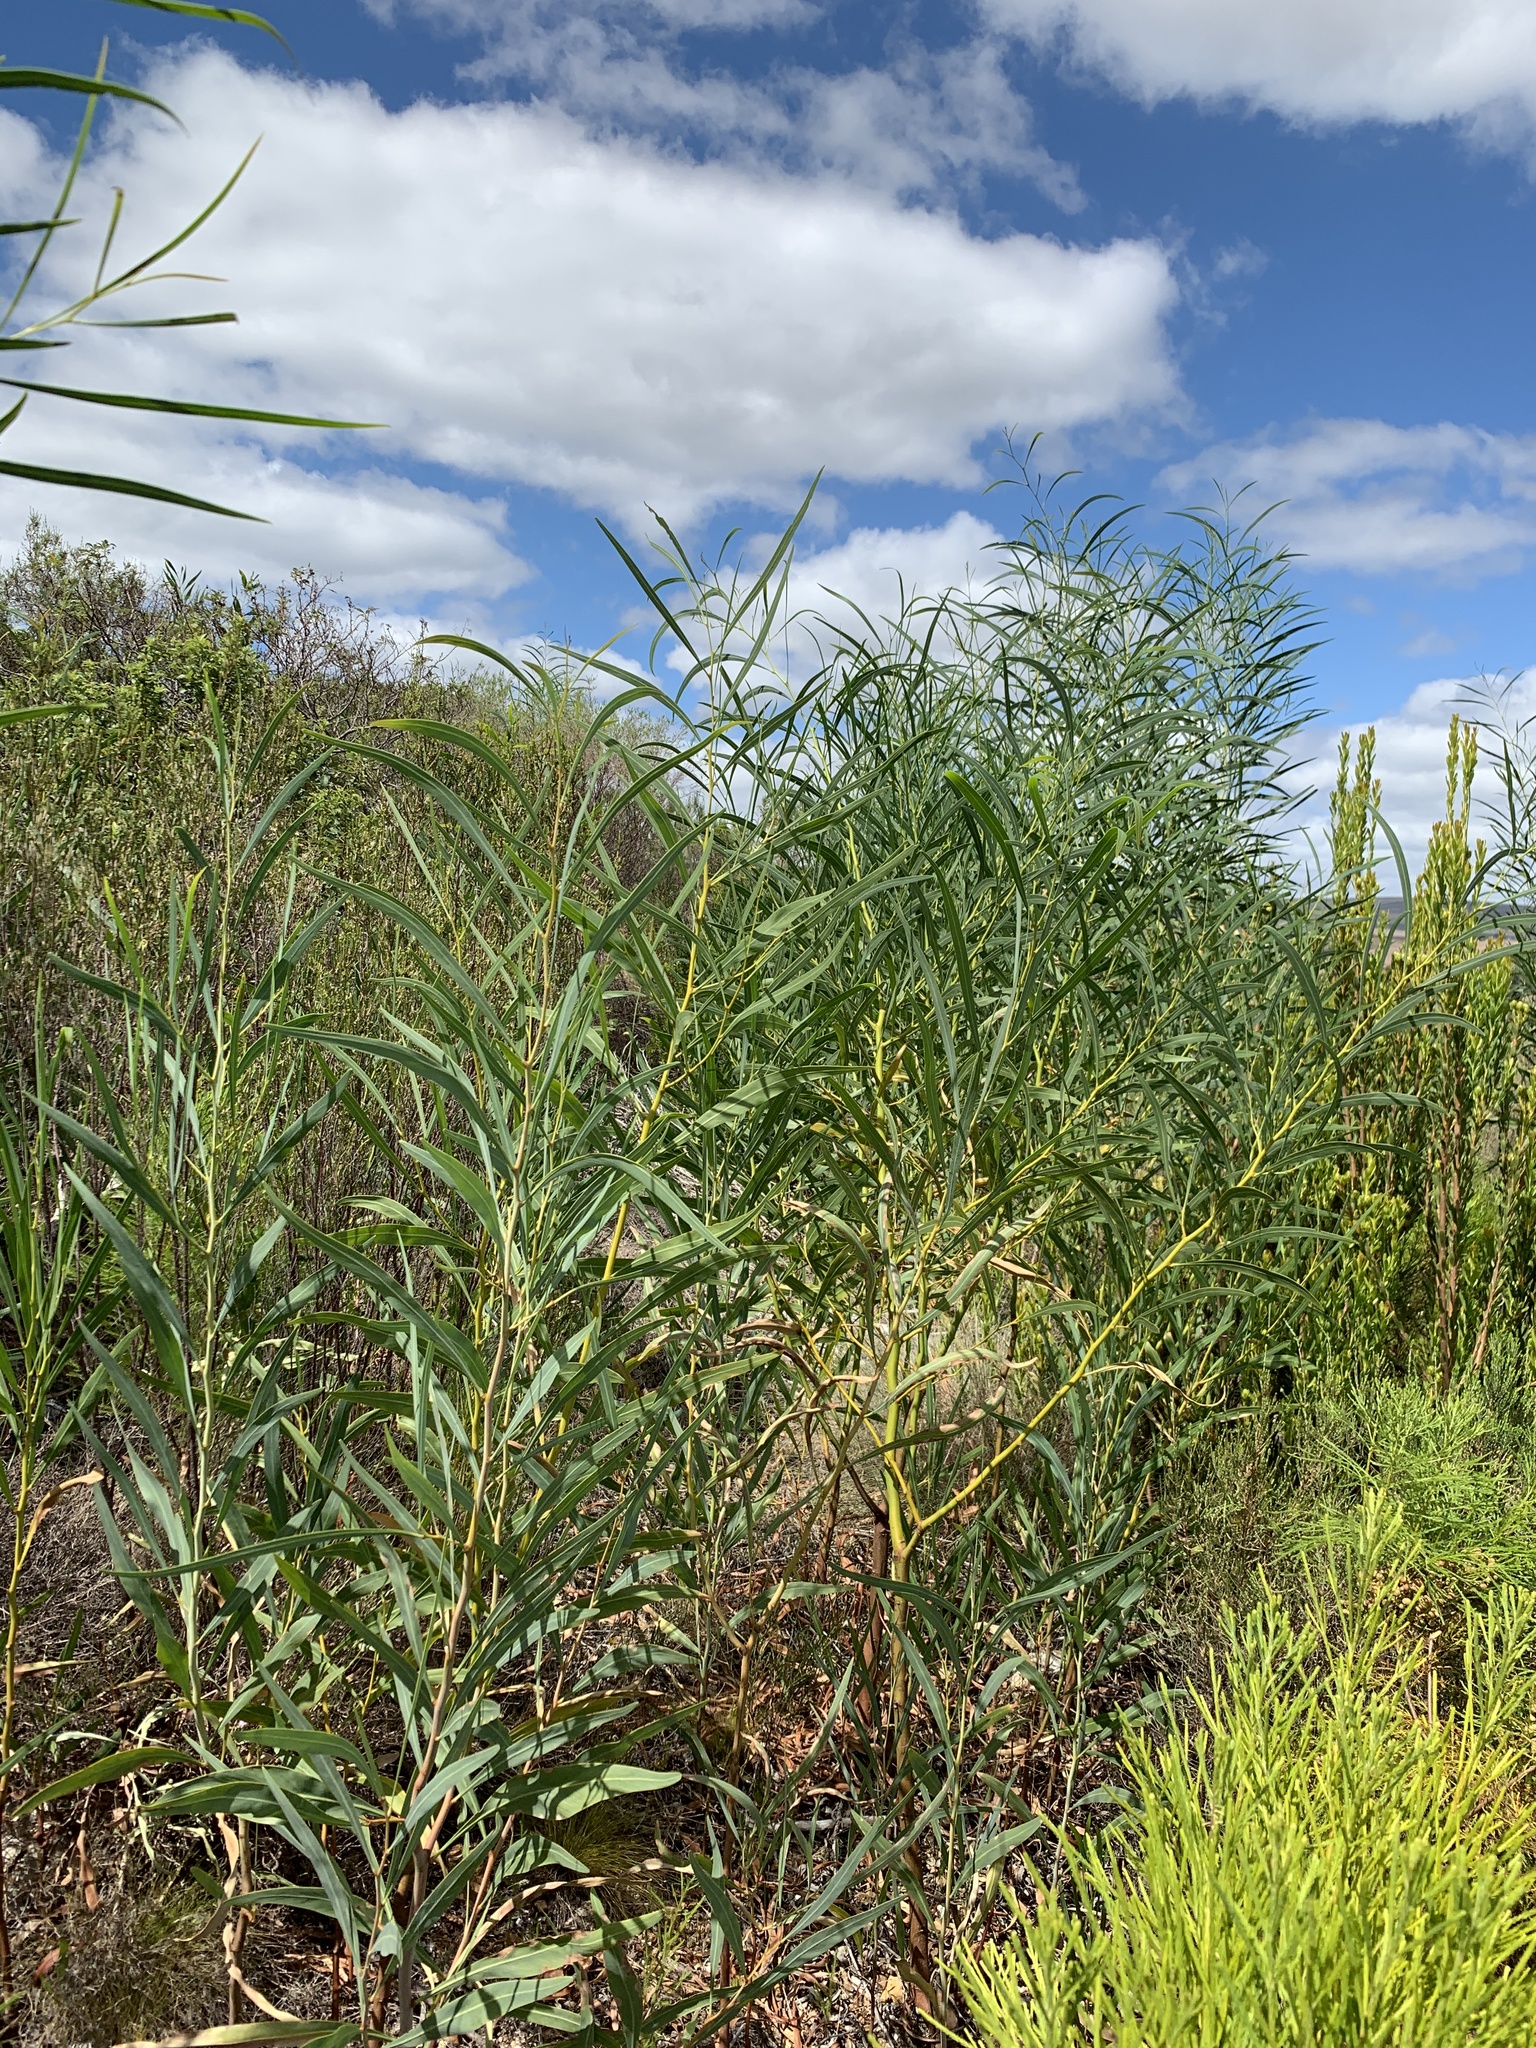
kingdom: Plantae
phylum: Tracheophyta
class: Magnoliopsida
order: Fabales
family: Fabaceae
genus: Acacia
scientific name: Acacia saligna
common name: Orange wattle
